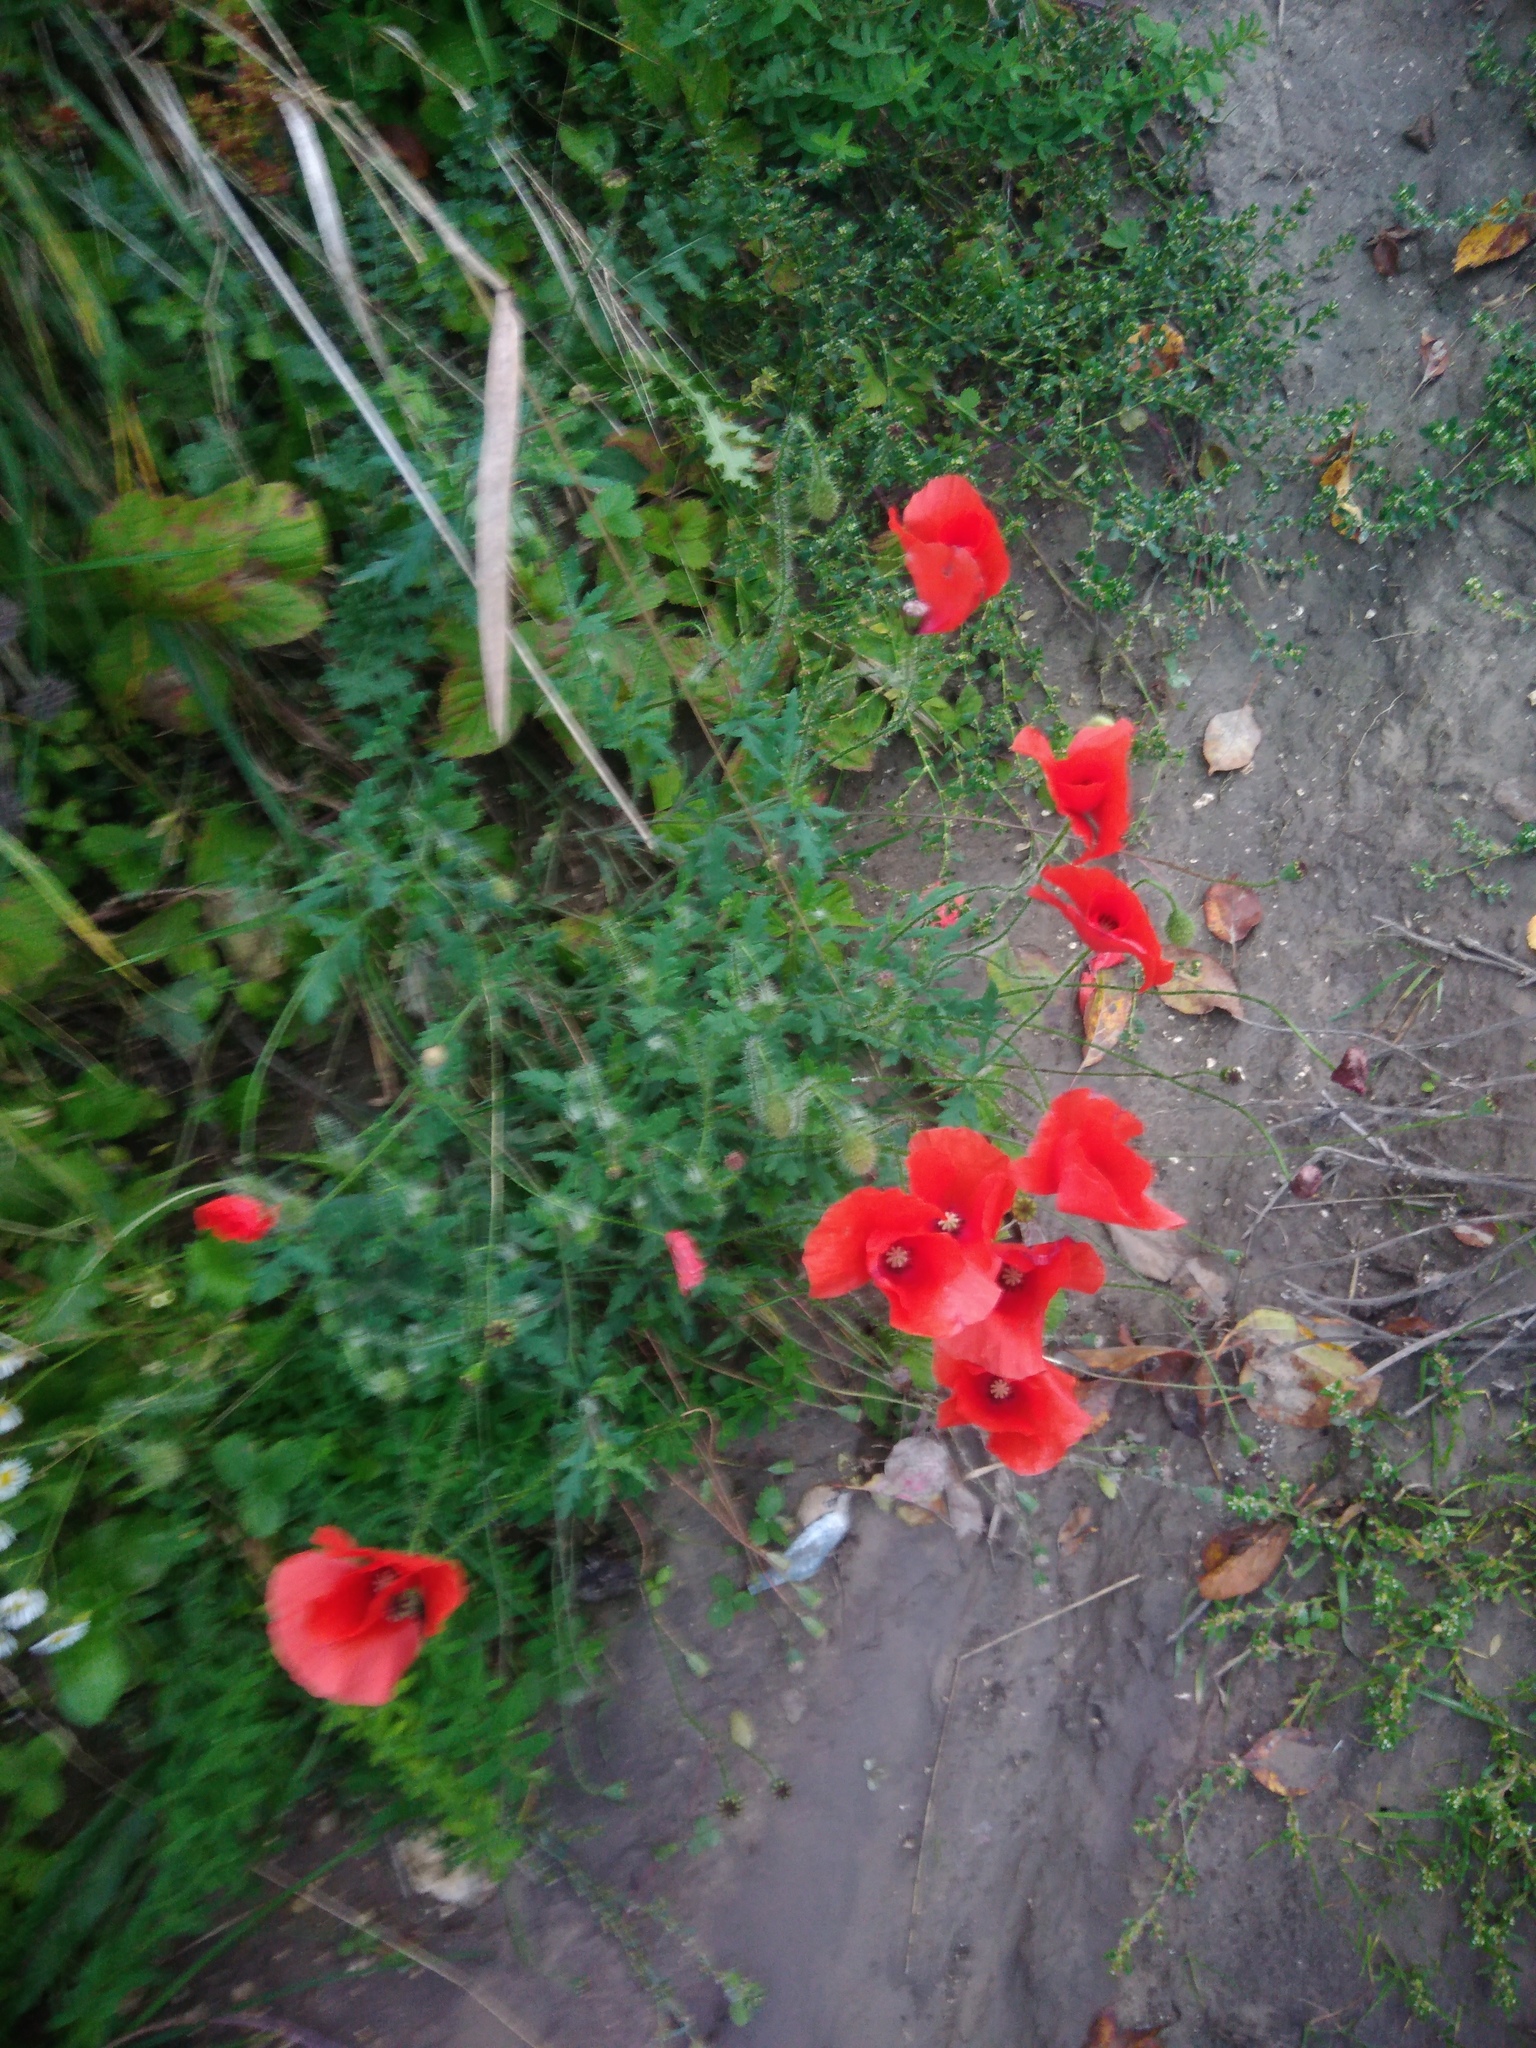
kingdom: Plantae
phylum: Tracheophyta
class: Magnoliopsida
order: Ranunculales
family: Papaveraceae
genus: Papaver
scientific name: Papaver rhoeas
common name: Corn poppy
